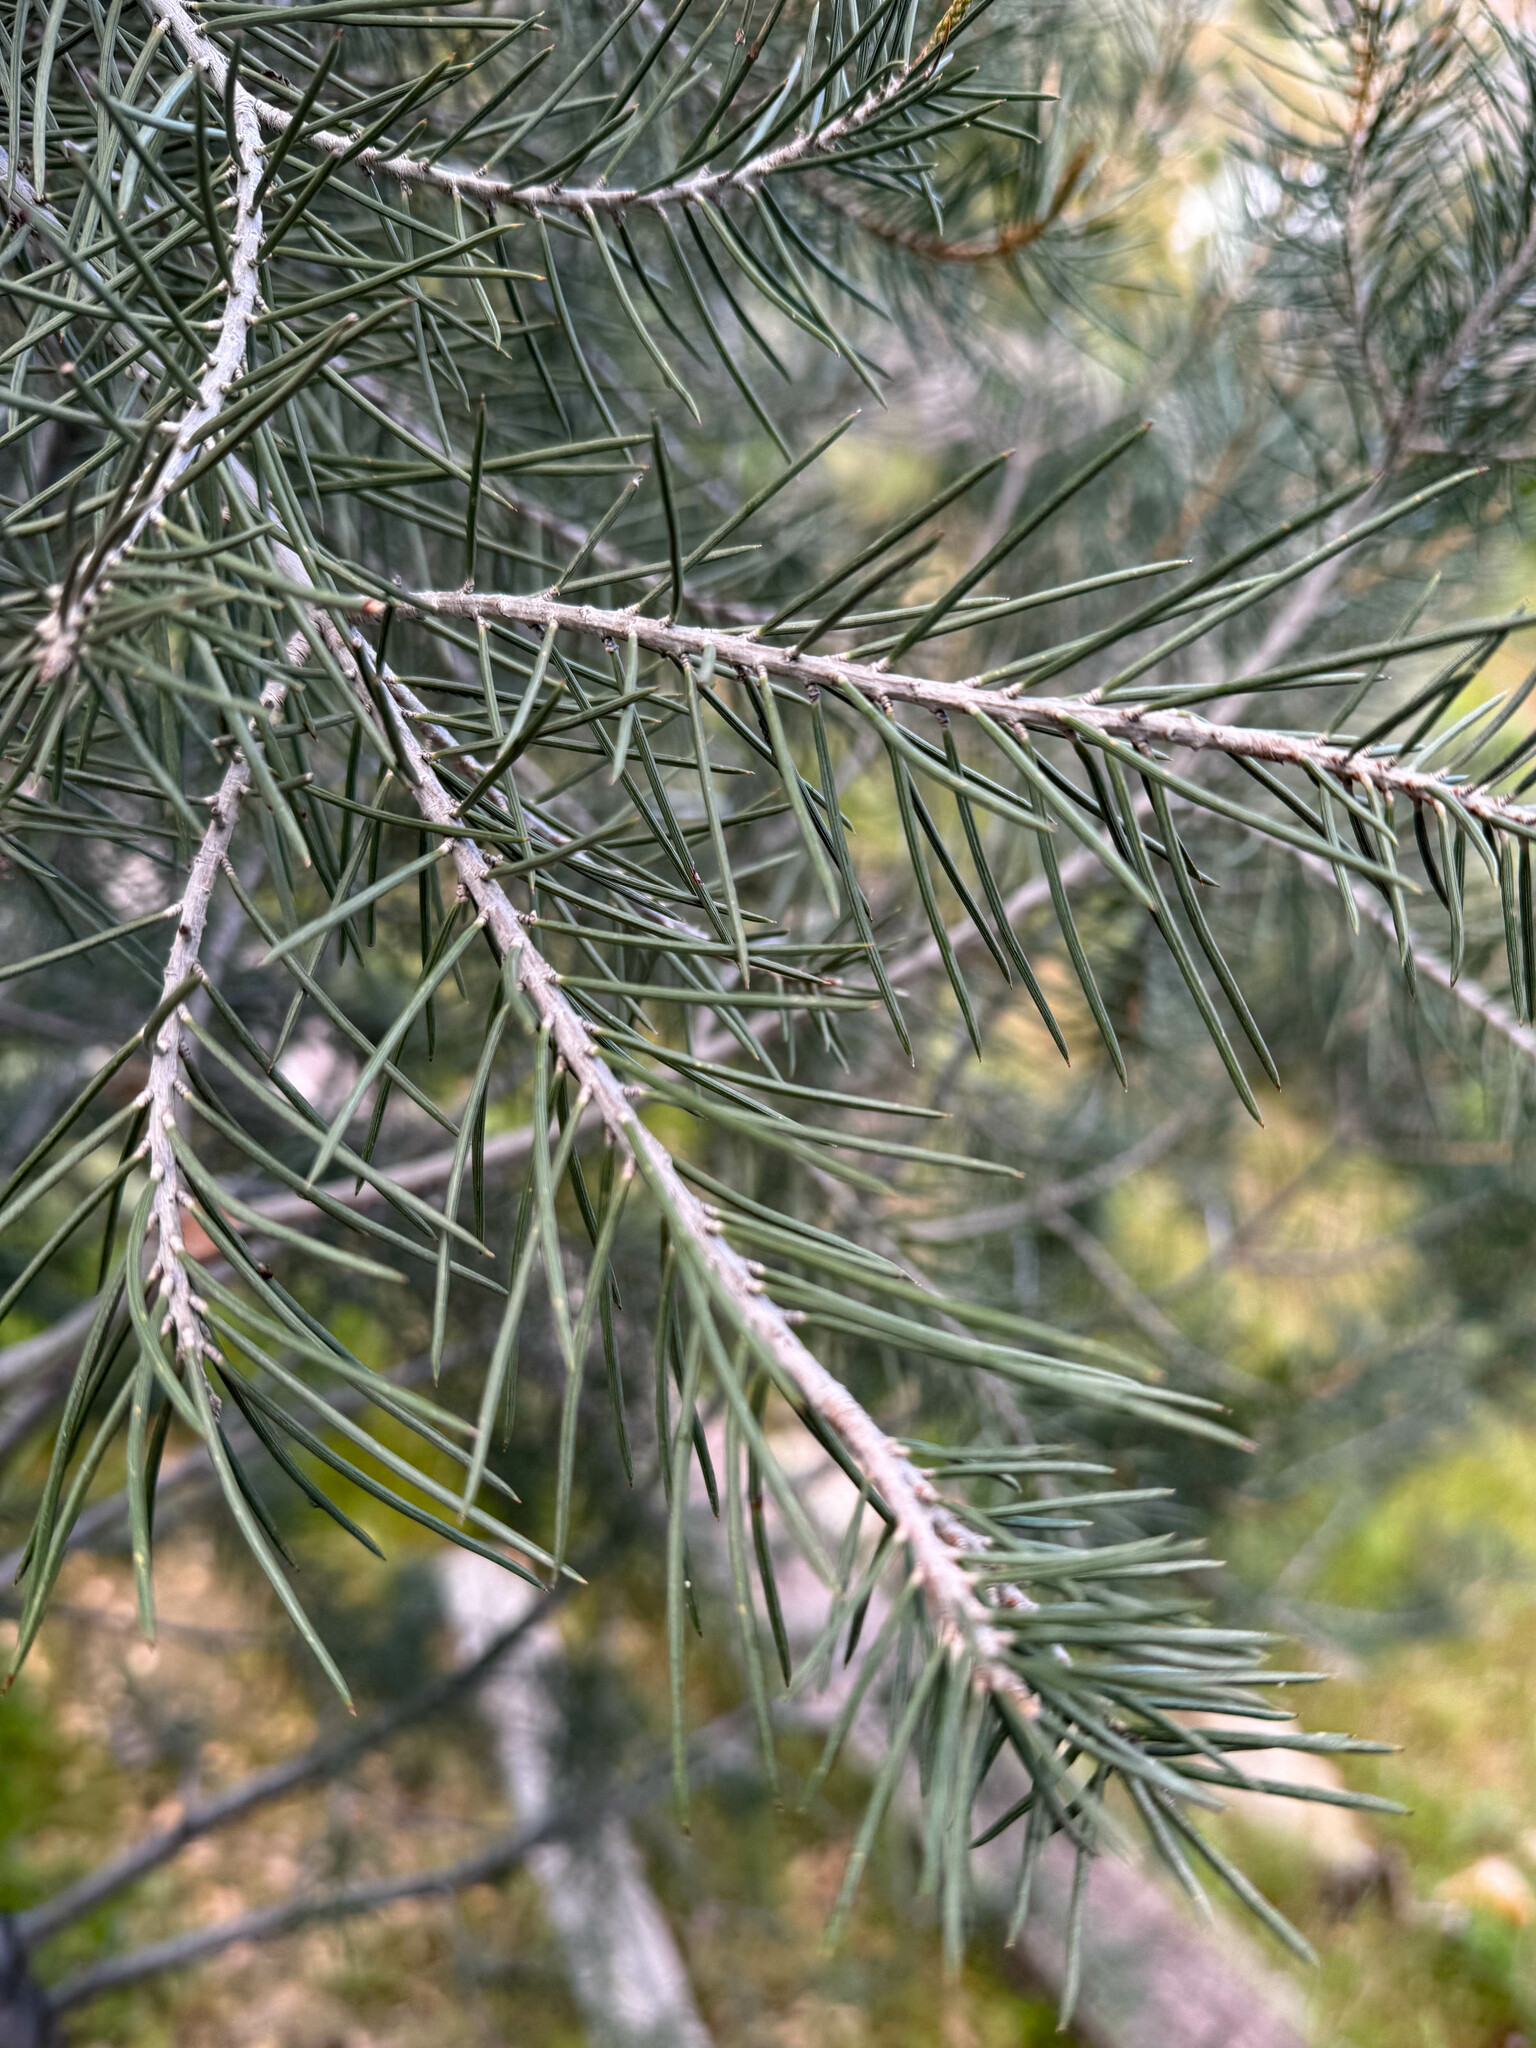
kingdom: Plantae
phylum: Tracheophyta
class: Pinopsida
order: Pinales
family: Pinaceae
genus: Pinus
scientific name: Pinus monophylla
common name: One-leaved nut pine
